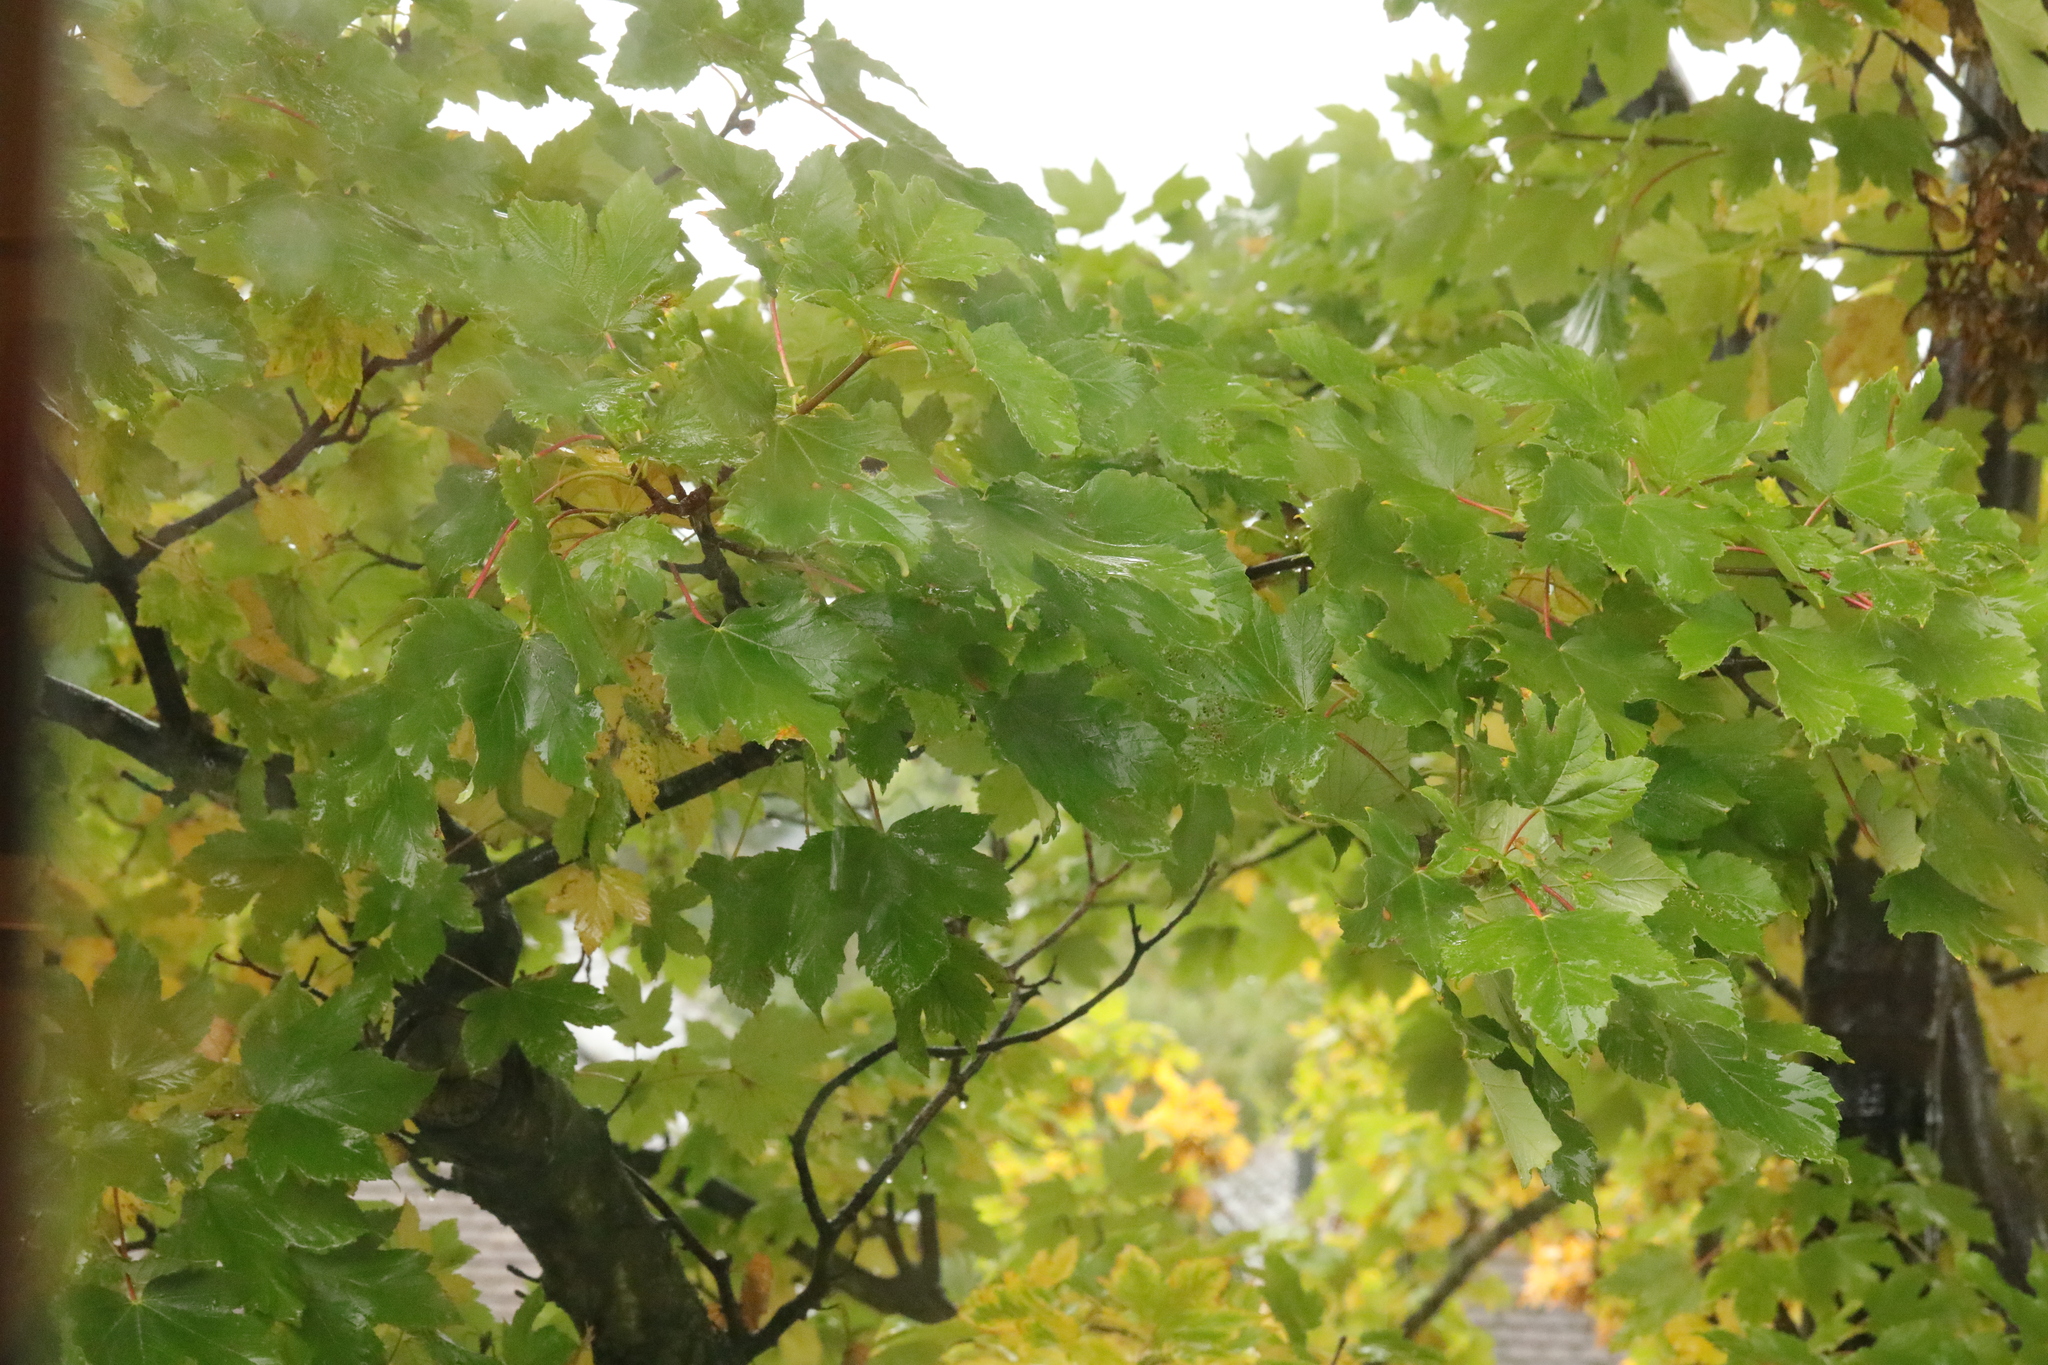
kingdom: Plantae
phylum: Tracheophyta
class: Magnoliopsida
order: Sapindales
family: Sapindaceae
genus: Acer
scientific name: Acer pseudoplatanus
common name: Sycamore
